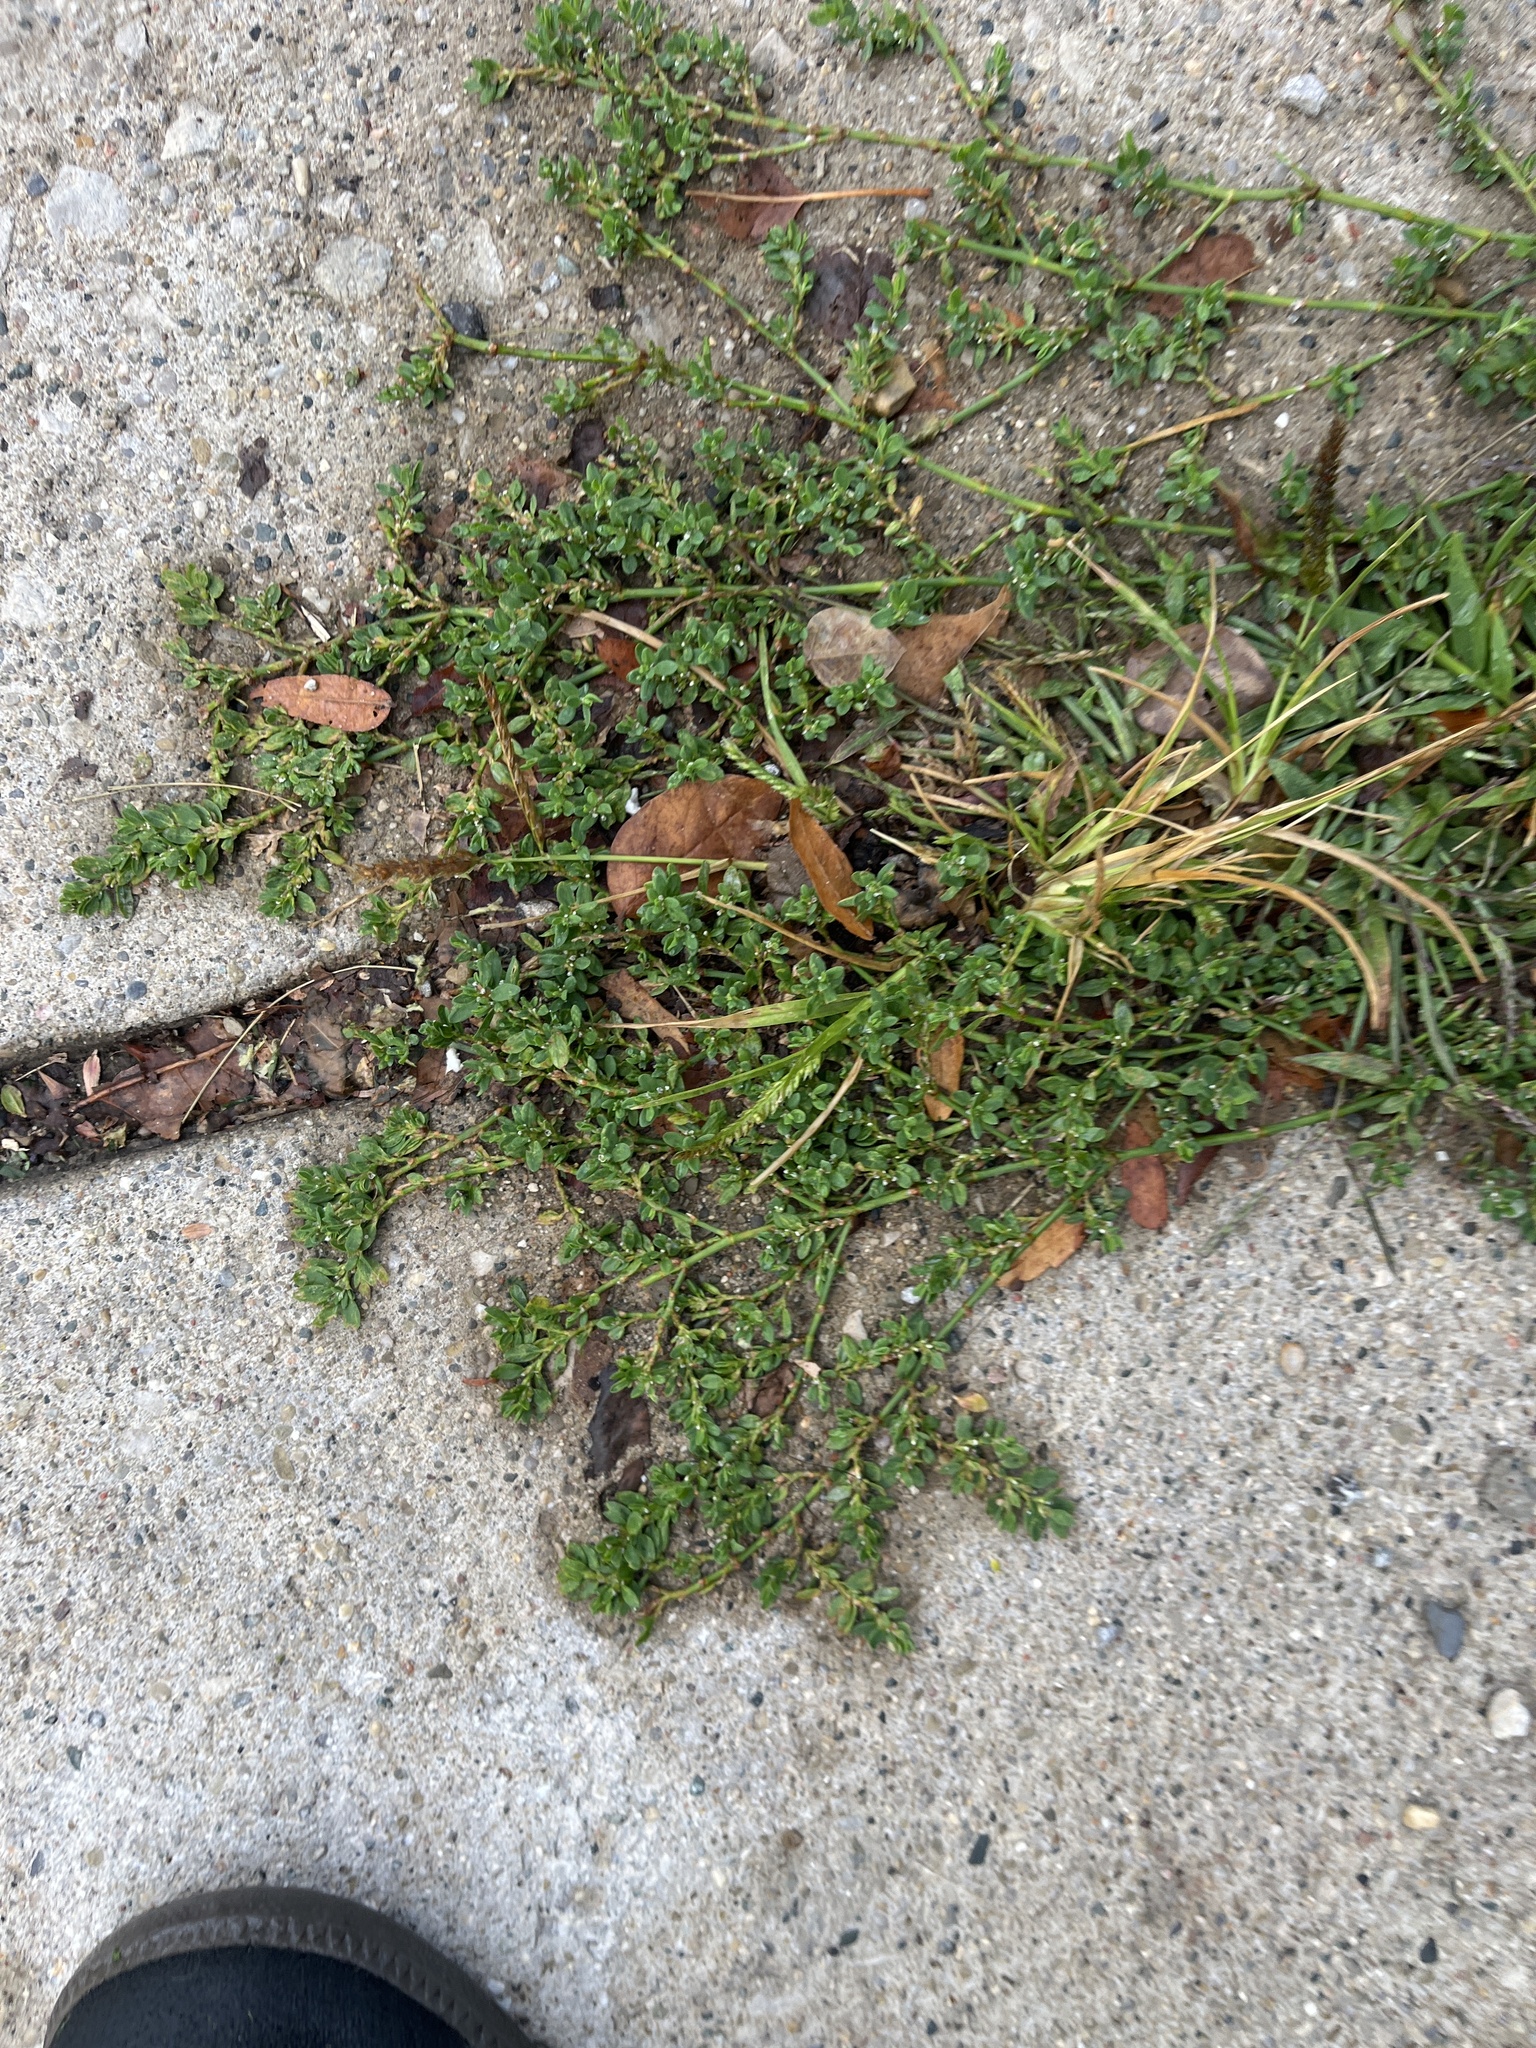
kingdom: Plantae
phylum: Tracheophyta
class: Magnoliopsida
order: Caryophyllales
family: Polygonaceae
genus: Polygonum
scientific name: Polygonum aviculare
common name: Prostrate knotweed
